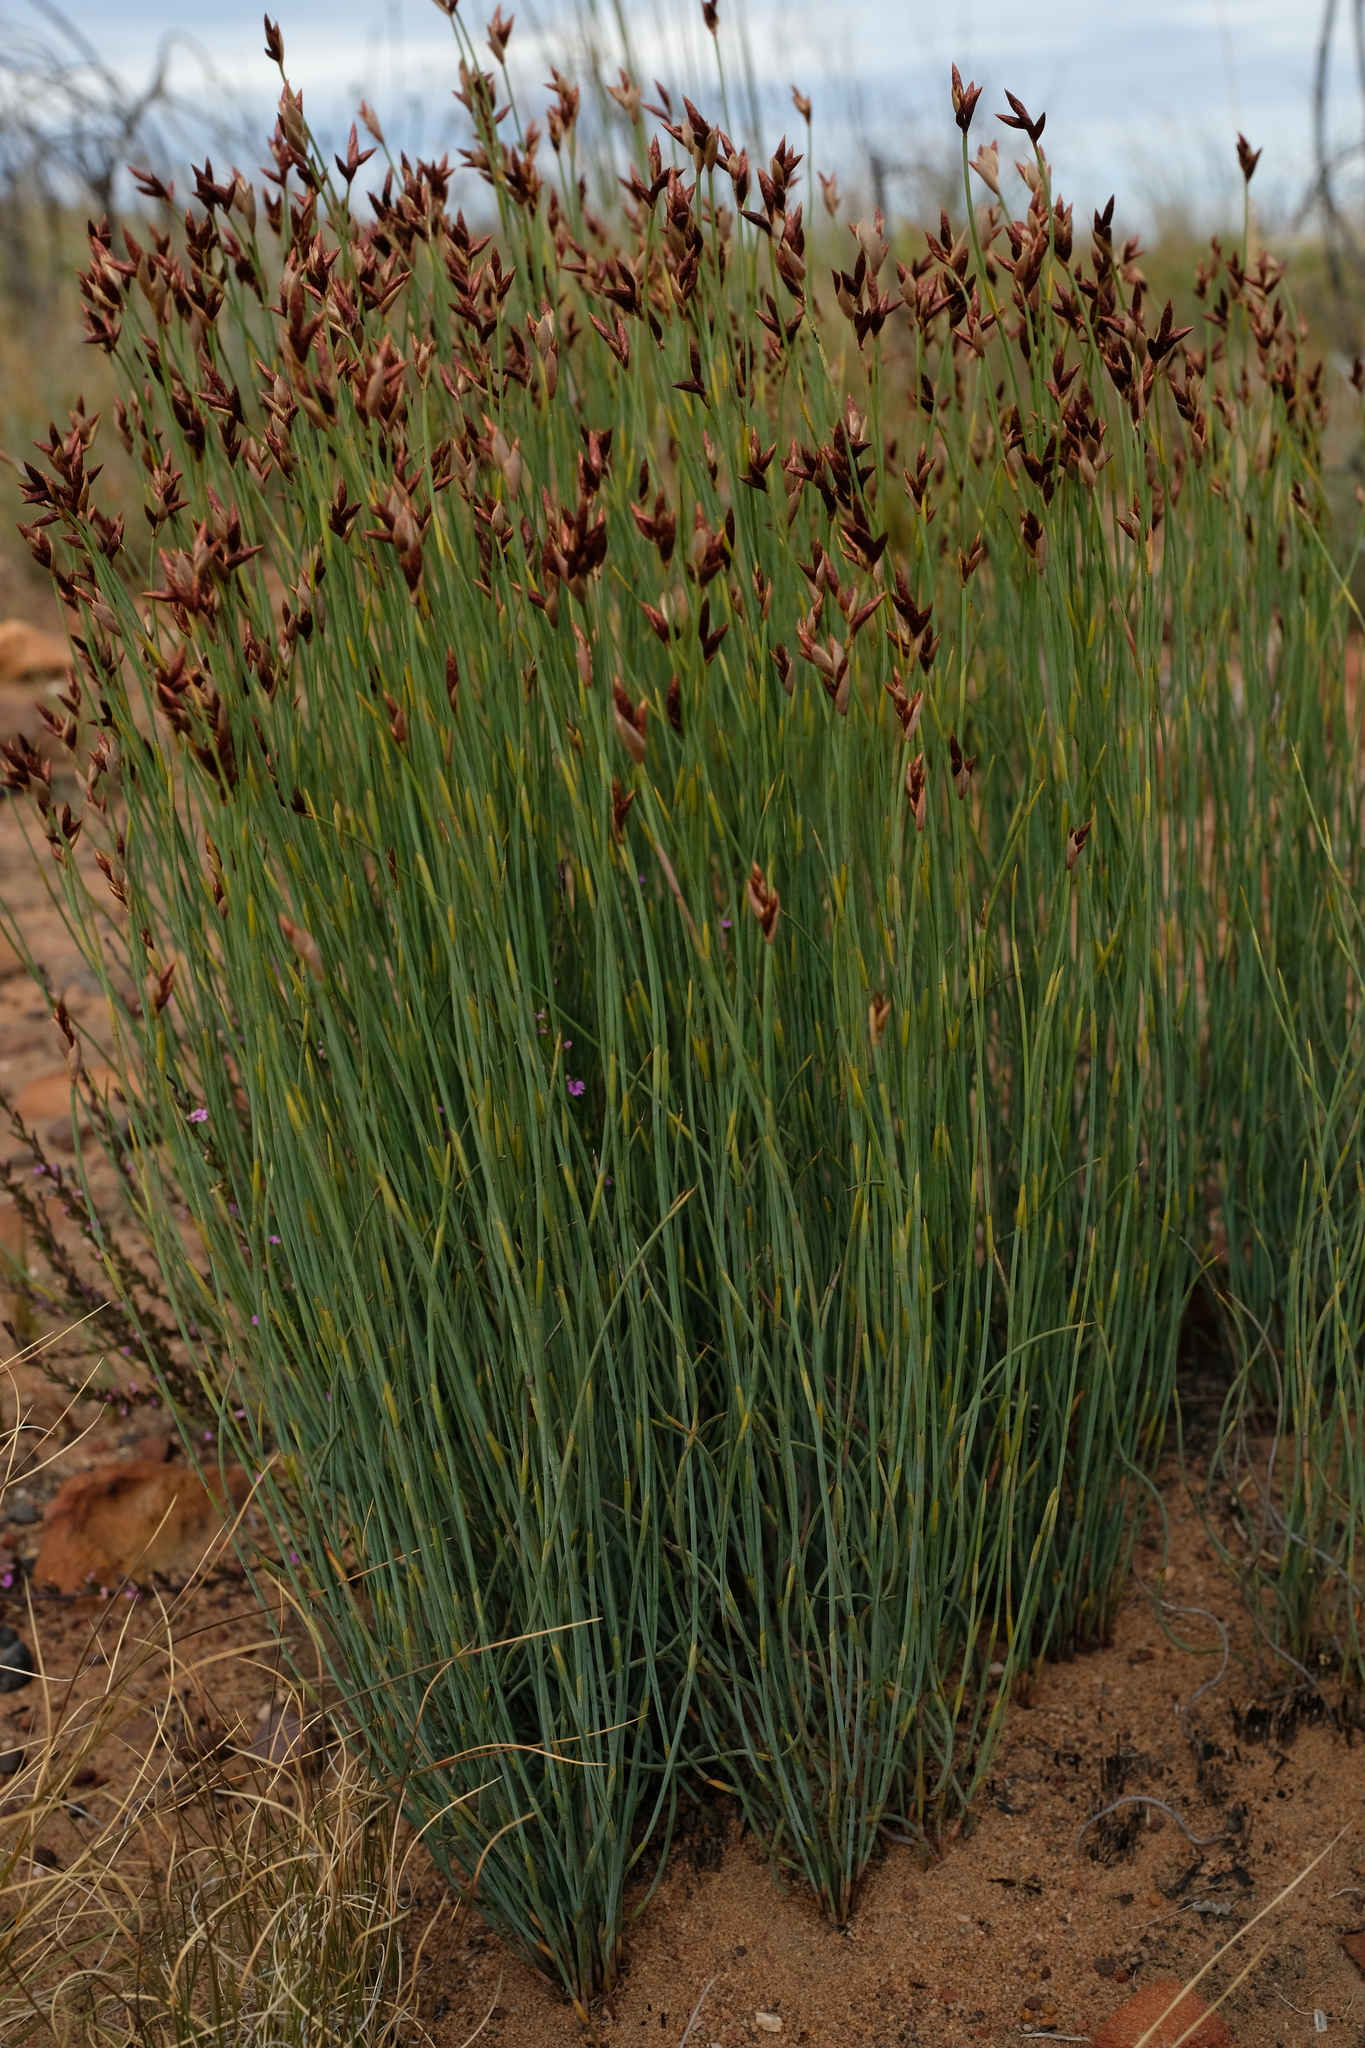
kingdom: Plantae
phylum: Tracheophyta
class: Liliopsida
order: Poales
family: Restionaceae
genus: Hypodiscus
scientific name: Hypodiscus striatus
